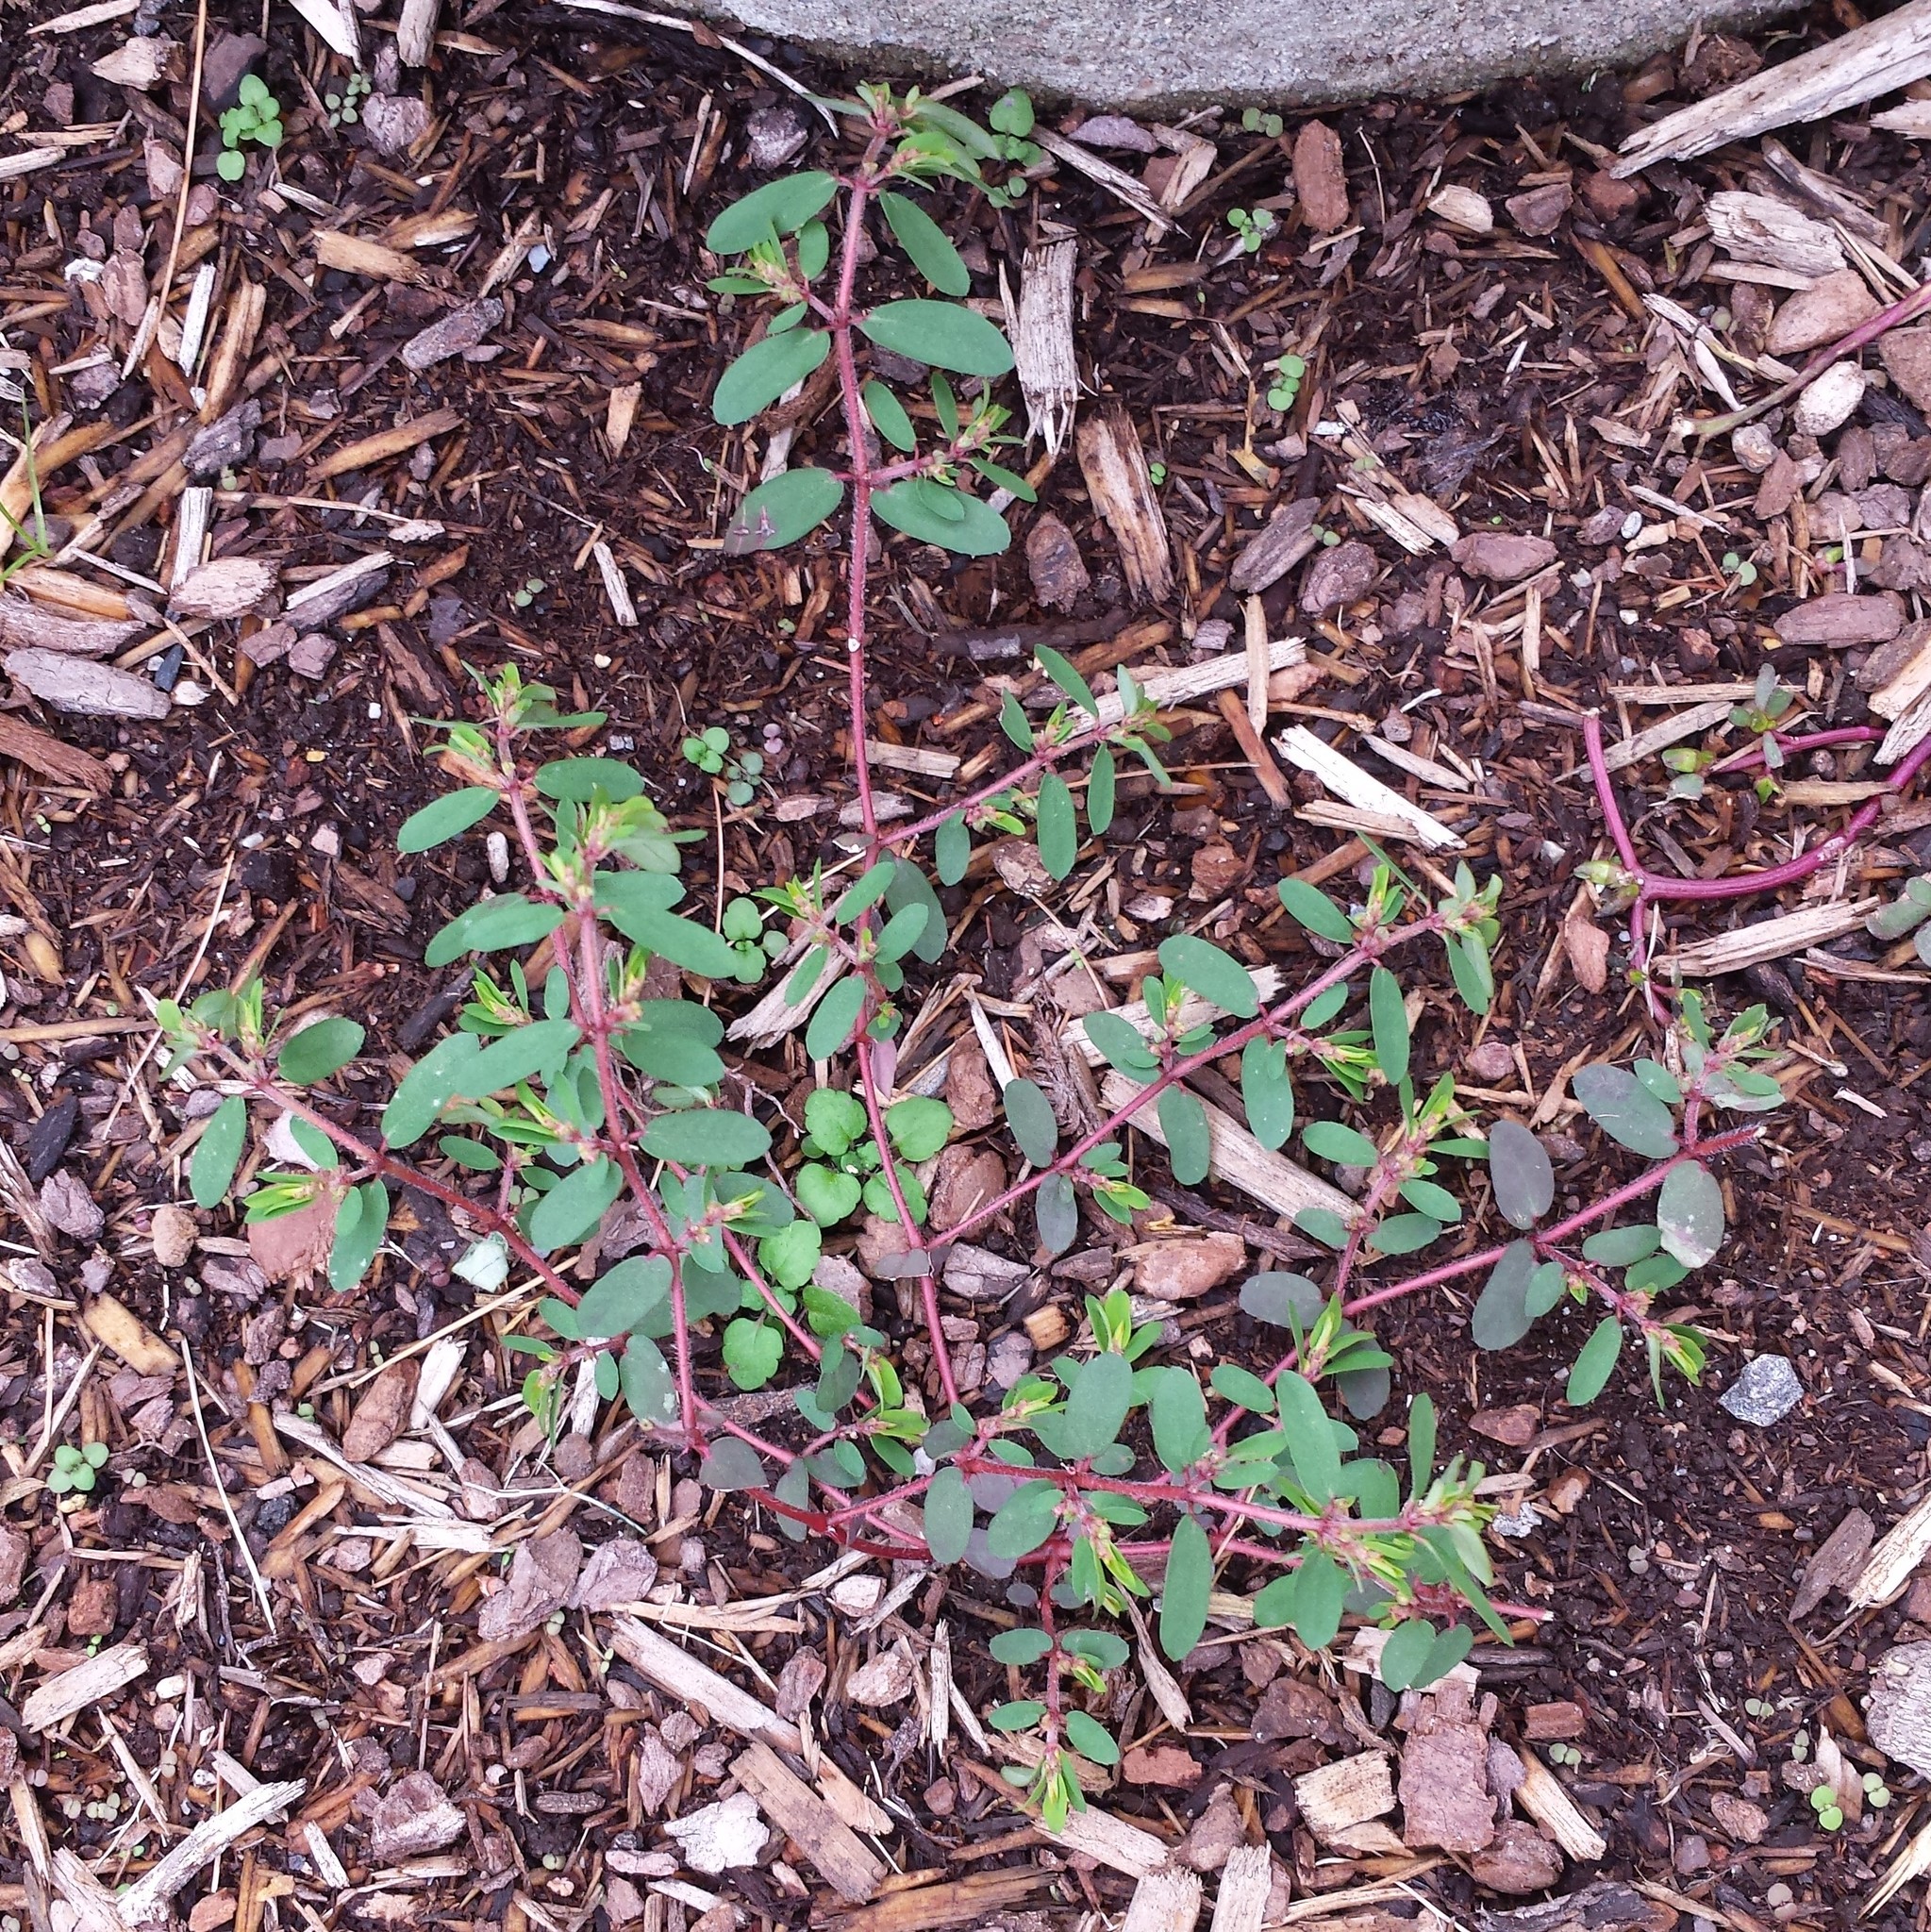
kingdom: Plantae
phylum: Tracheophyta
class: Magnoliopsida
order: Malpighiales
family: Euphorbiaceae
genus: Euphorbia
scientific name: Euphorbia maculata
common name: Spotted spurge
